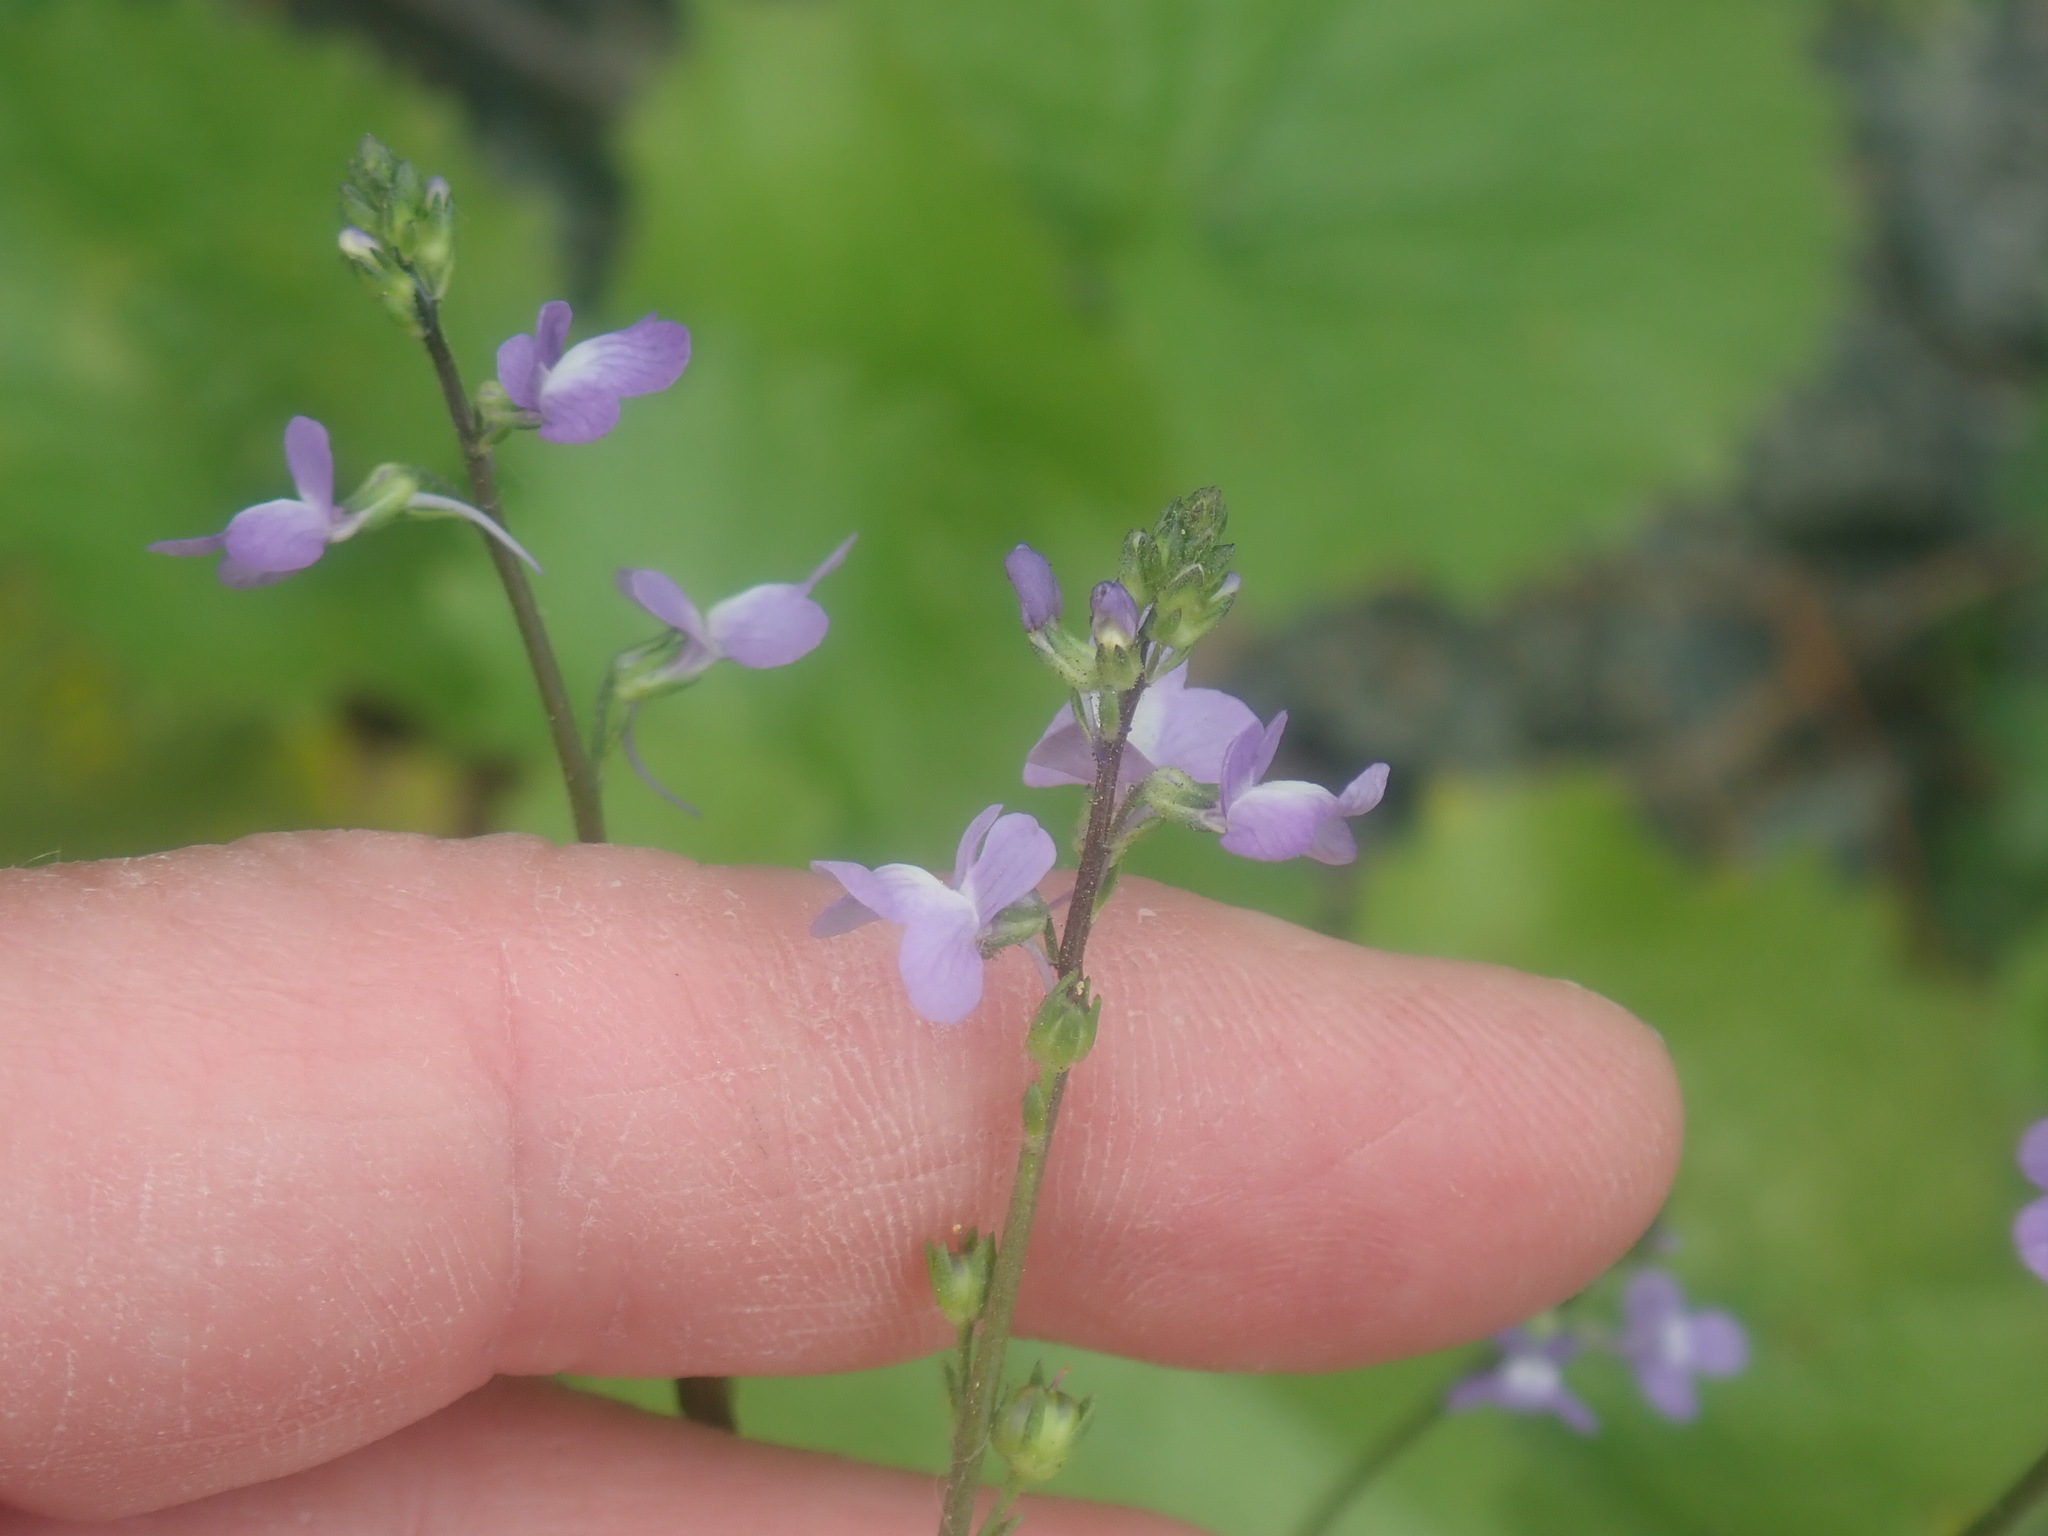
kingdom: Plantae
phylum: Tracheophyta
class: Magnoliopsida
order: Lamiales
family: Plantaginaceae
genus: Nuttallanthus
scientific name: Nuttallanthus canadensis
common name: Blue toadflax
